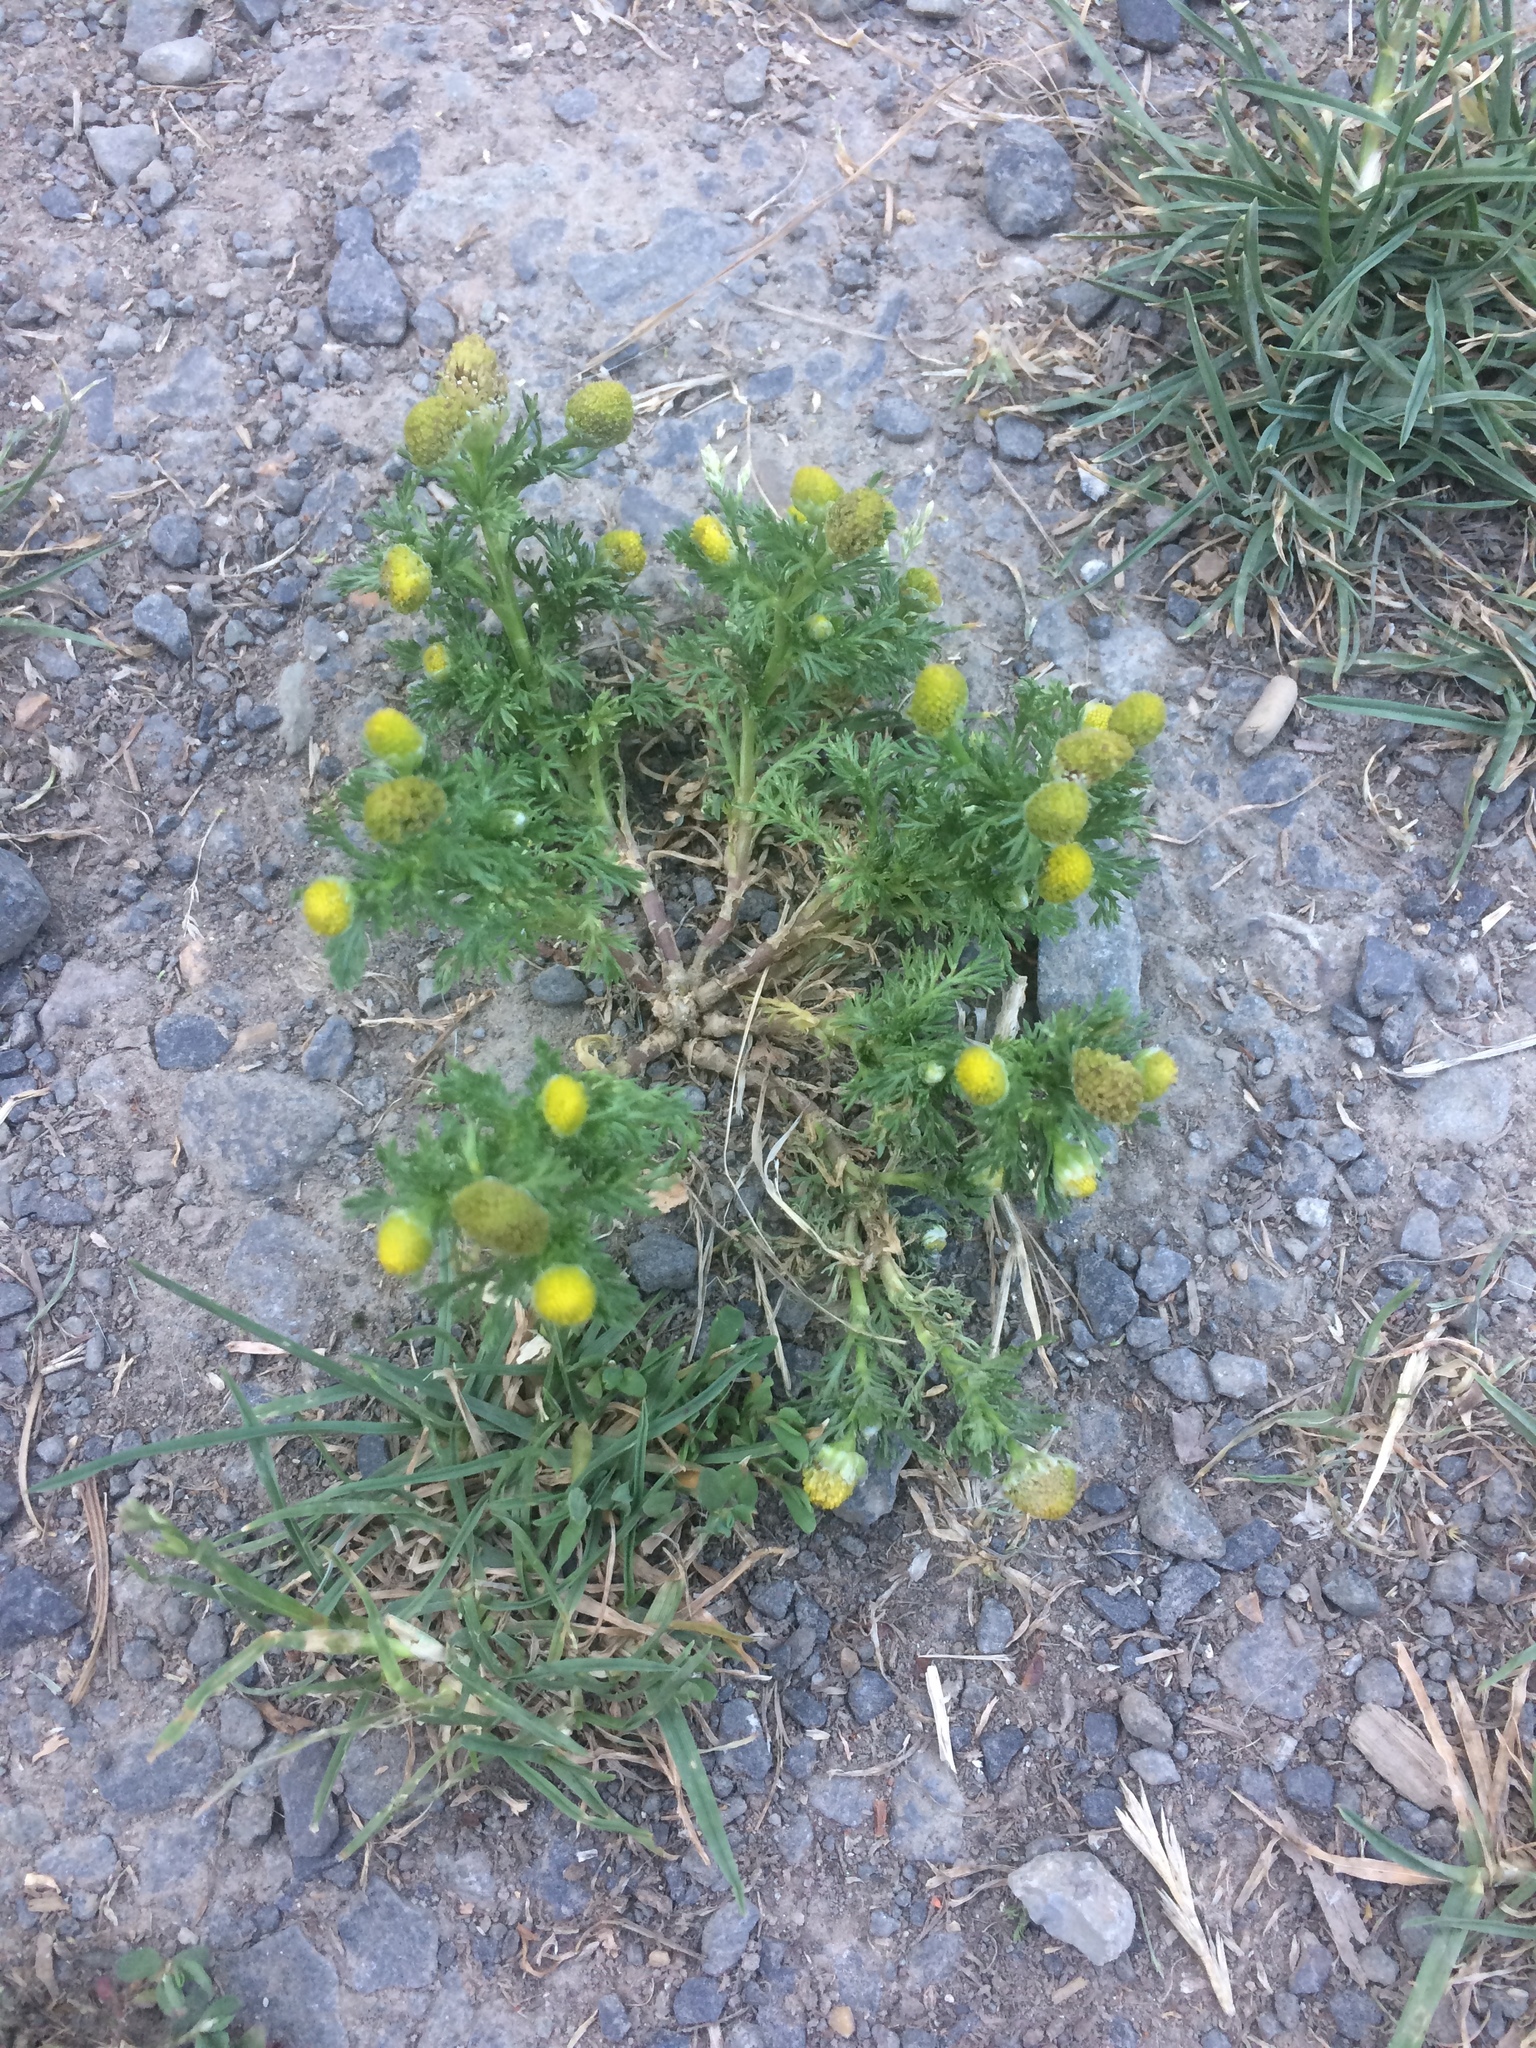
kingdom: Plantae
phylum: Tracheophyta
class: Magnoliopsida
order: Asterales
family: Asteraceae
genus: Matricaria
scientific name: Matricaria discoidea
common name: Disc mayweed
